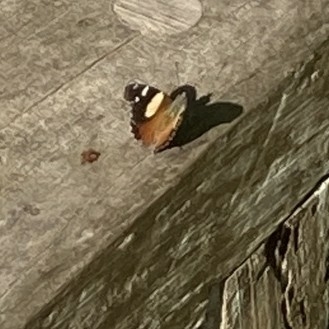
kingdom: Animalia
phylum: Arthropoda
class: Insecta
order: Lepidoptera
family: Nymphalidae
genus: Vanessa
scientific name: Vanessa itea
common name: Yellow admiral
